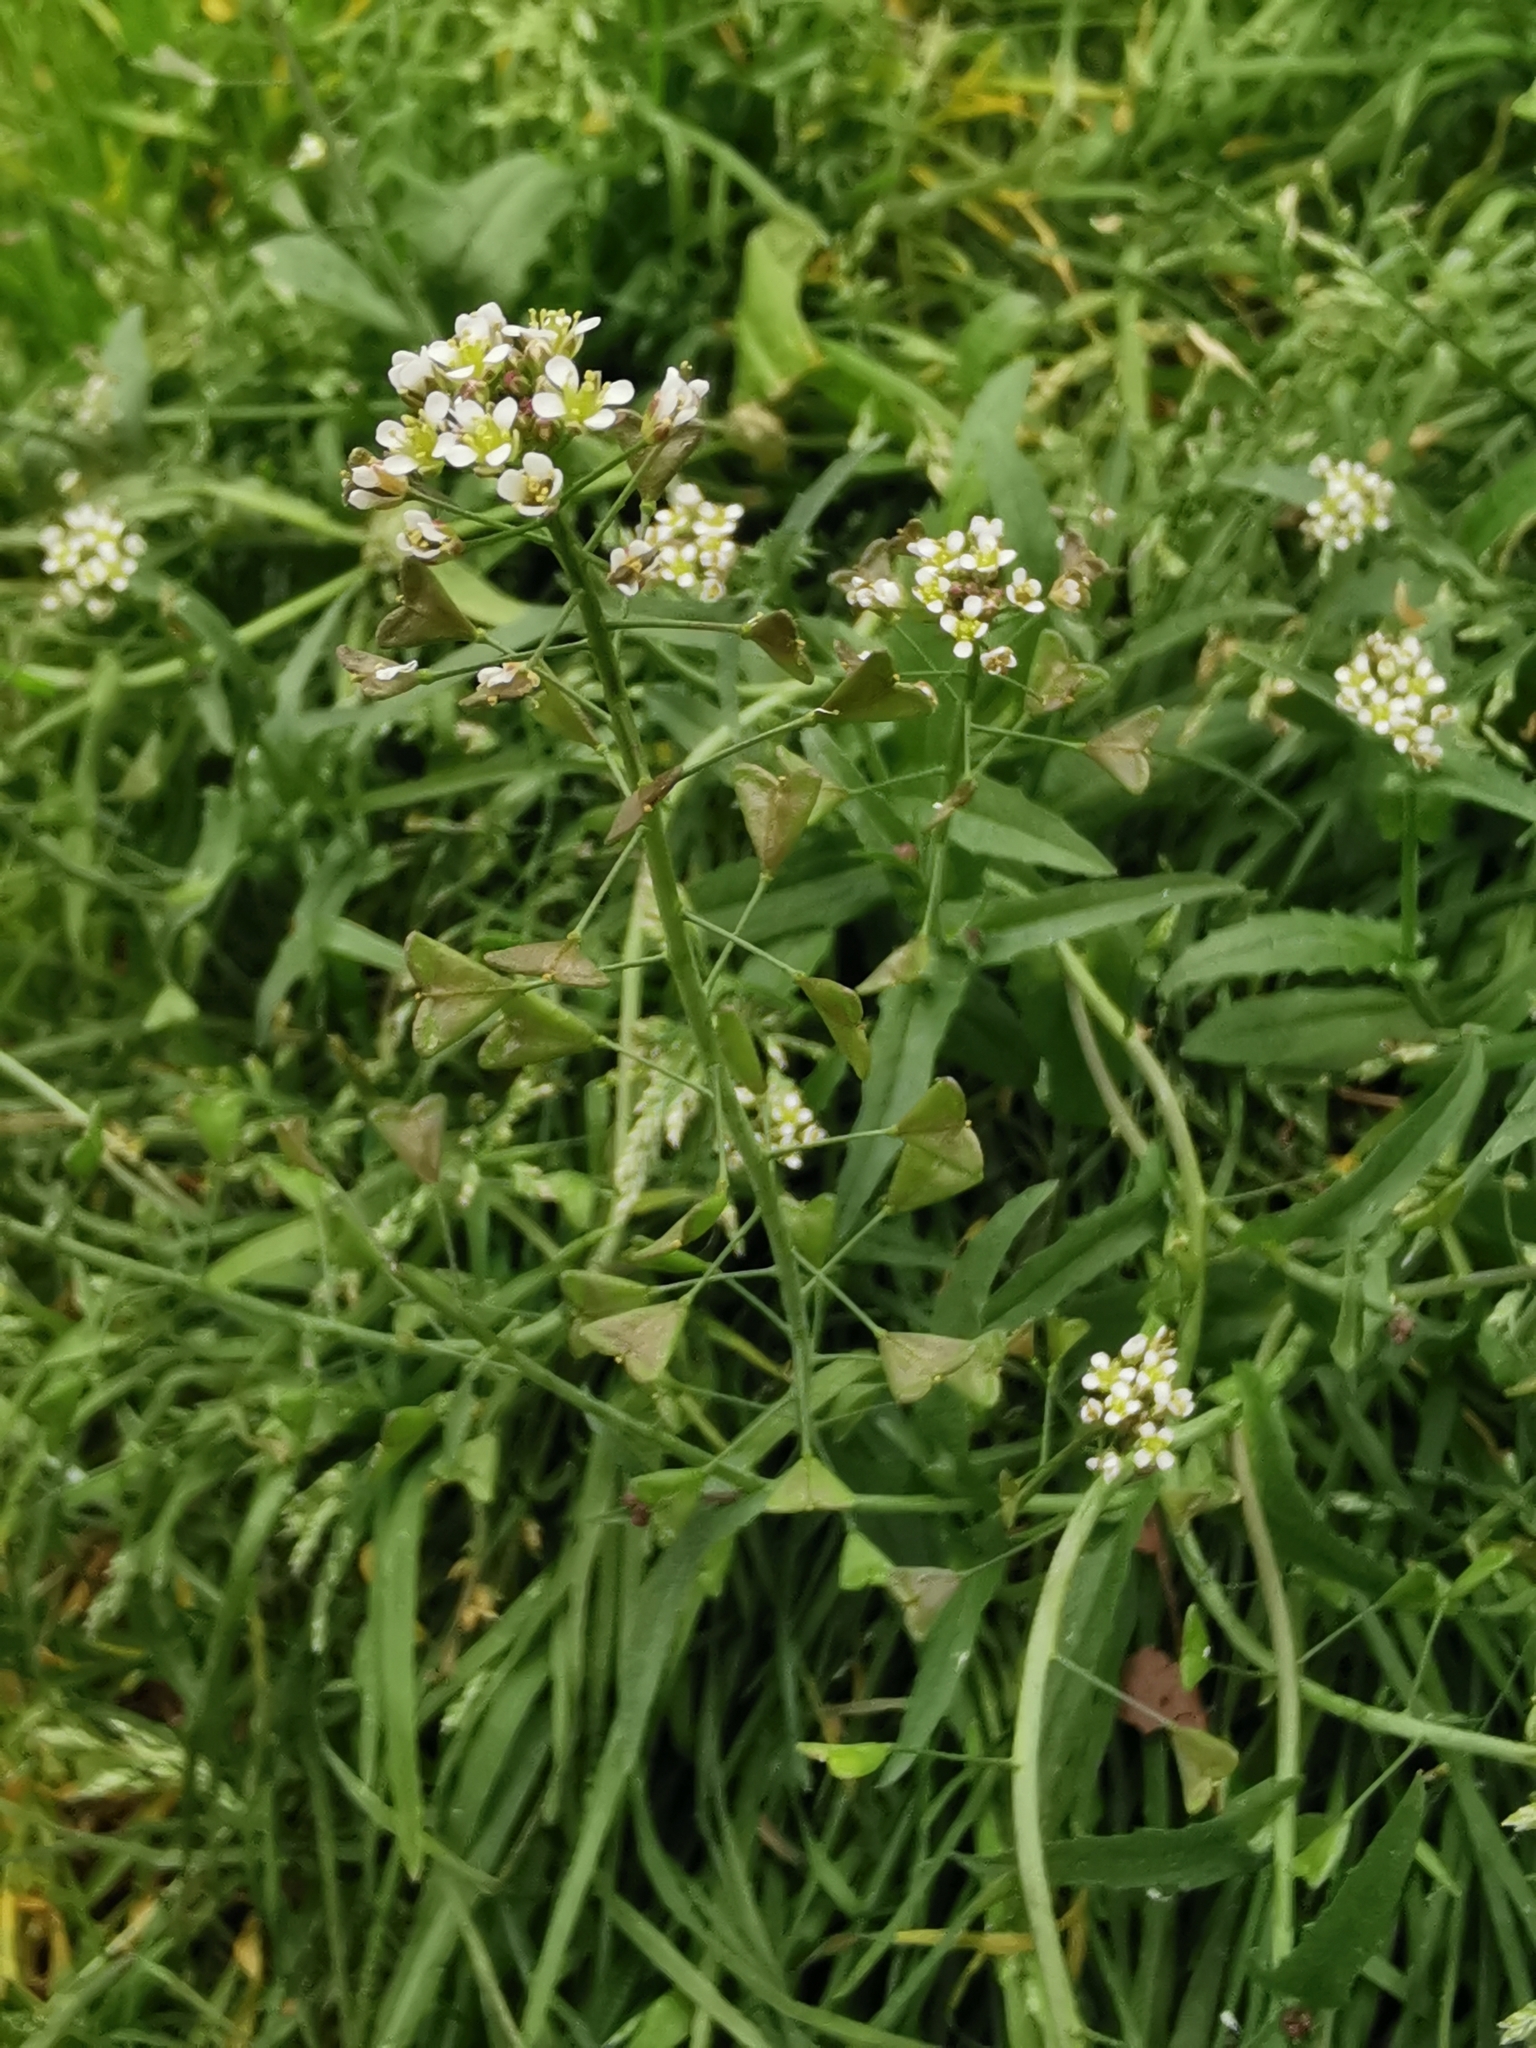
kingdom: Plantae
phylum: Tracheophyta
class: Magnoliopsida
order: Brassicales
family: Brassicaceae
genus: Capsella
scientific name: Capsella bursa-pastoris
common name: Shepherd's purse
